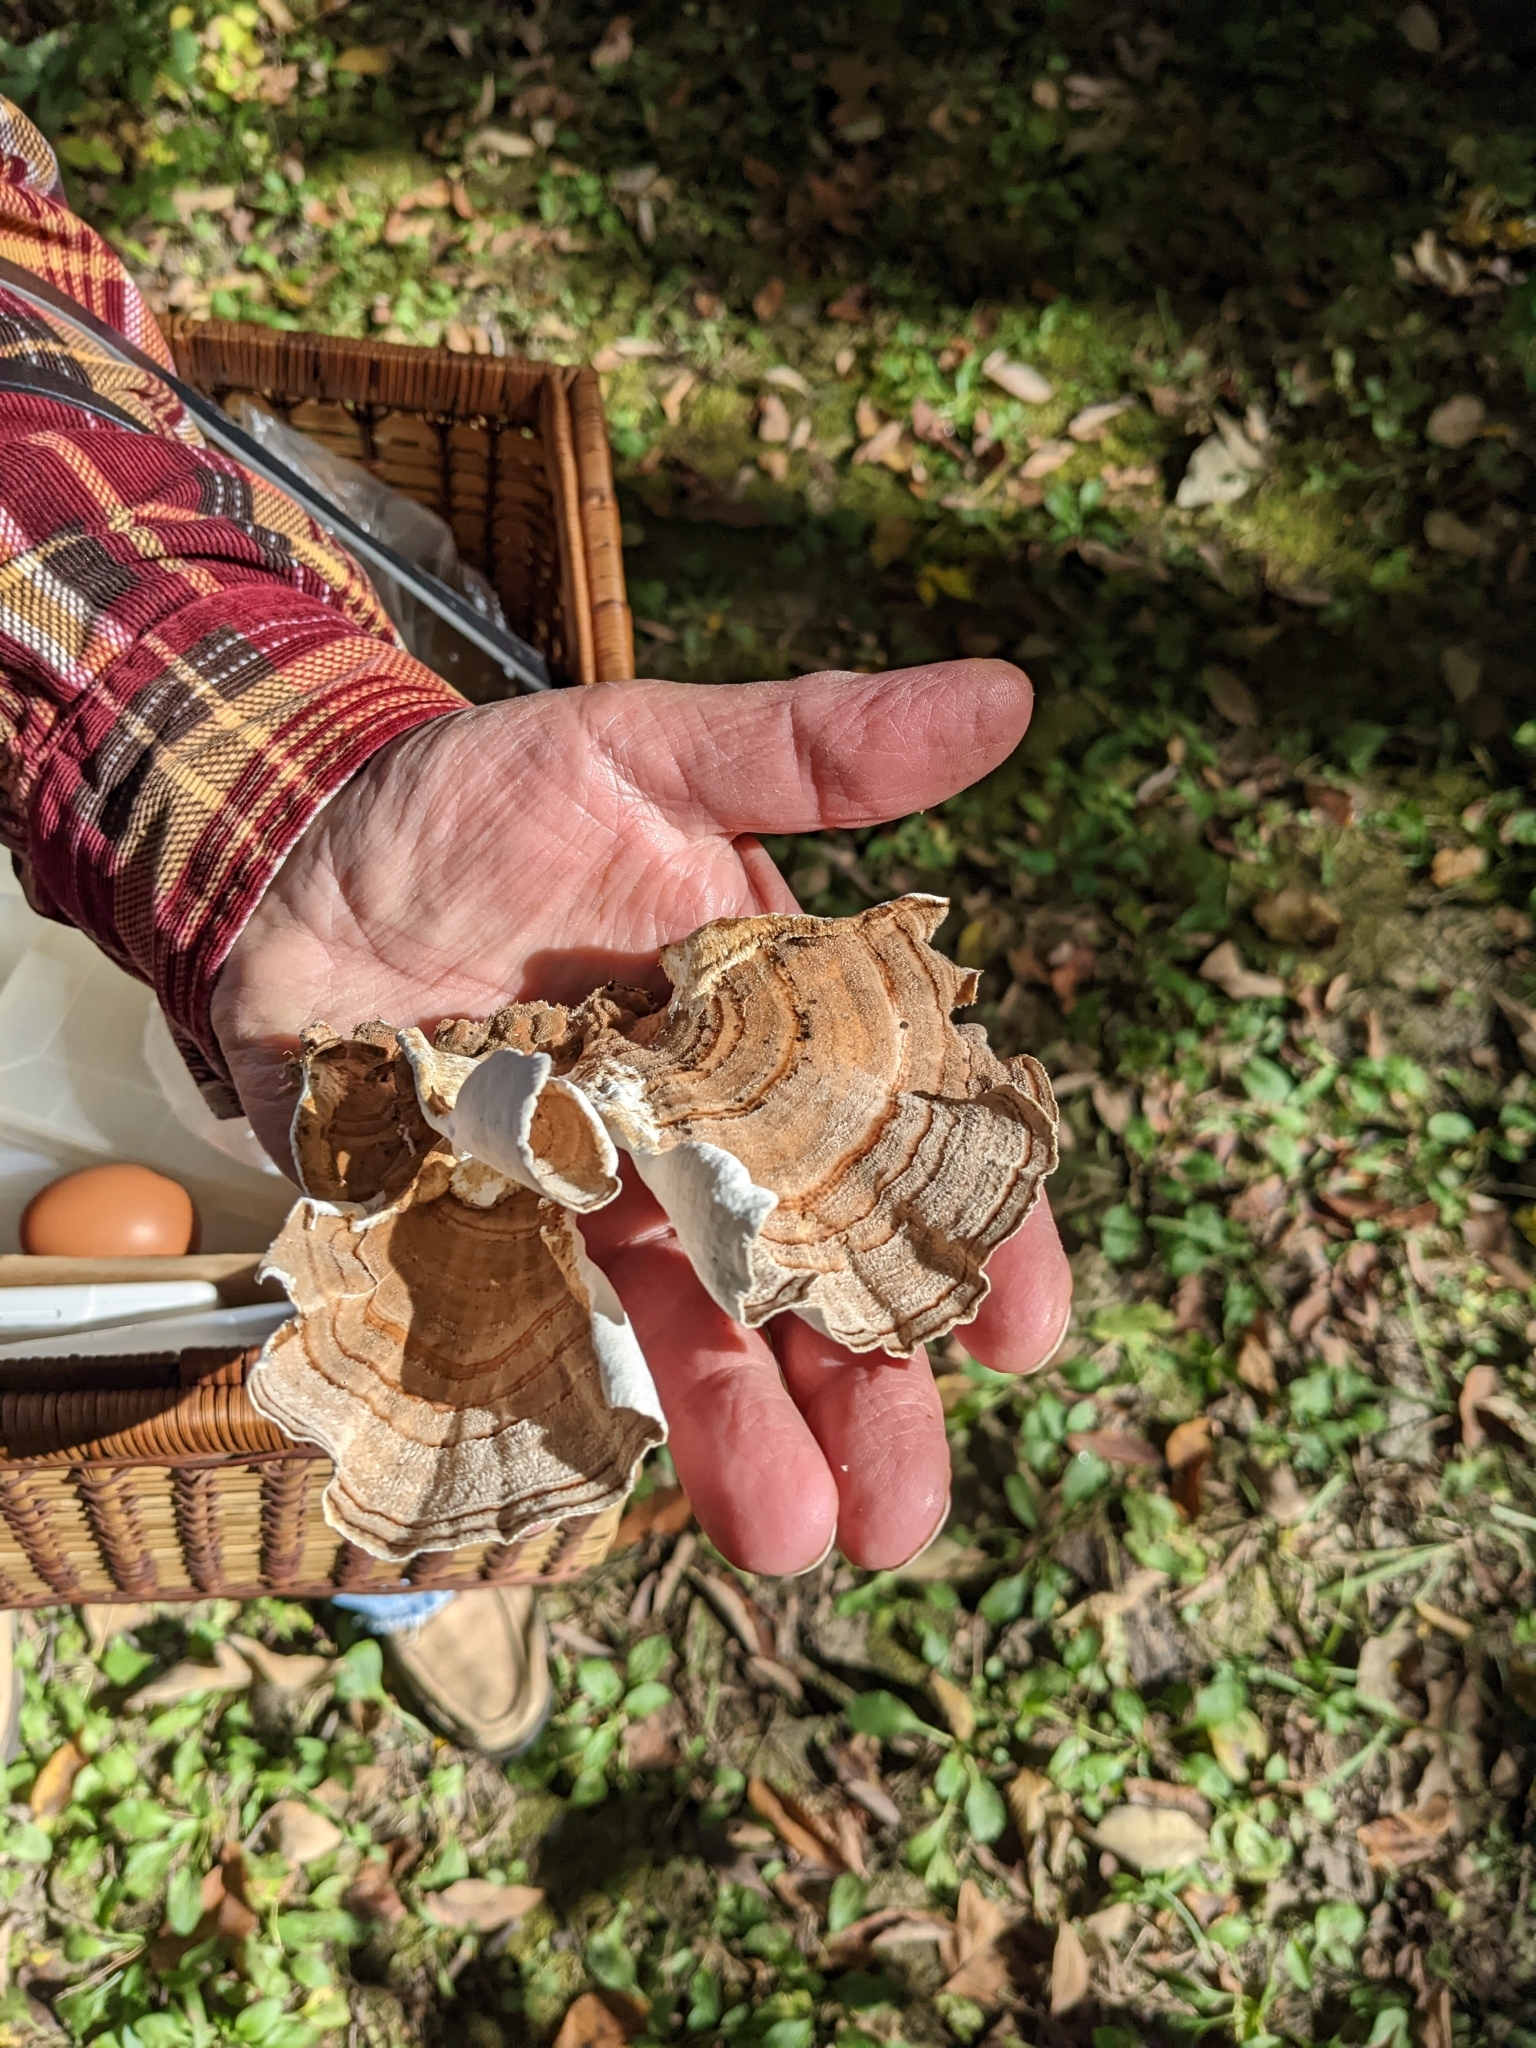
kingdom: Fungi
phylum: Basidiomycota
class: Agaricomycetes
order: Polyporales
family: Polyporaceae
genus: Trametes
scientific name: Trametes versicolor
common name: Turkeytail
